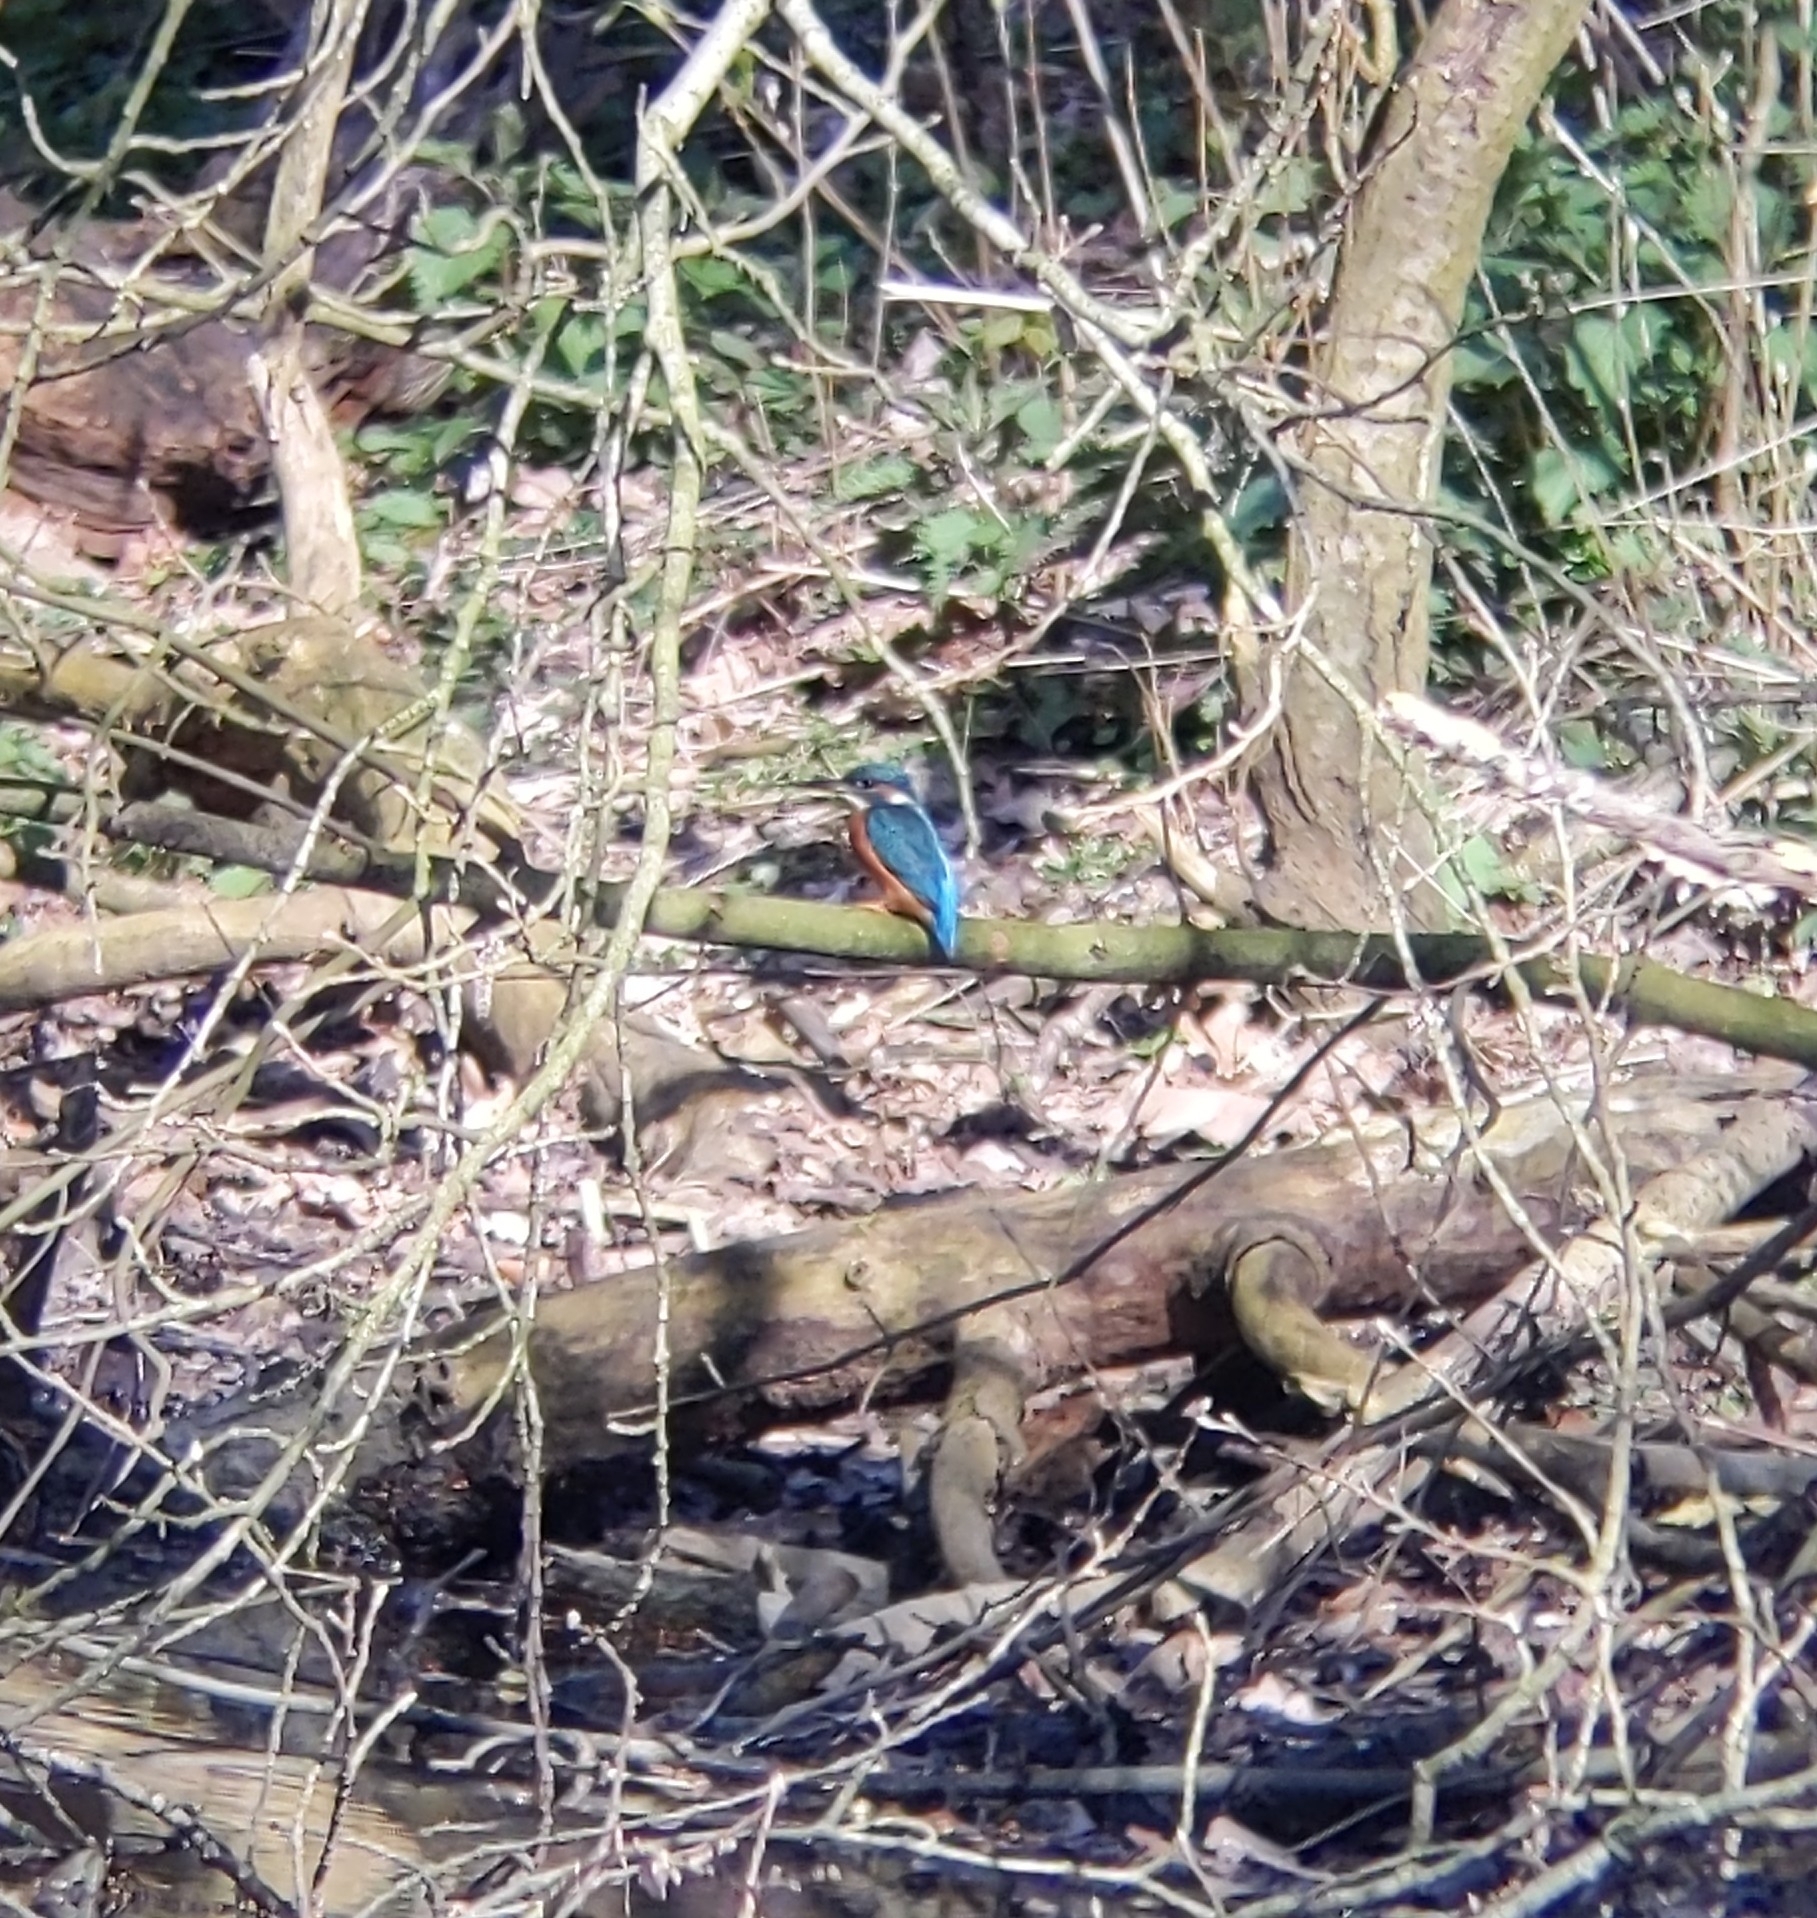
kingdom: Animalia
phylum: Chordata
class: Aves
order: Coraciiformes
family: Alcedinidae
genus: Alcedo
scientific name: Alcedo atthis
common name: Common kingfisher
